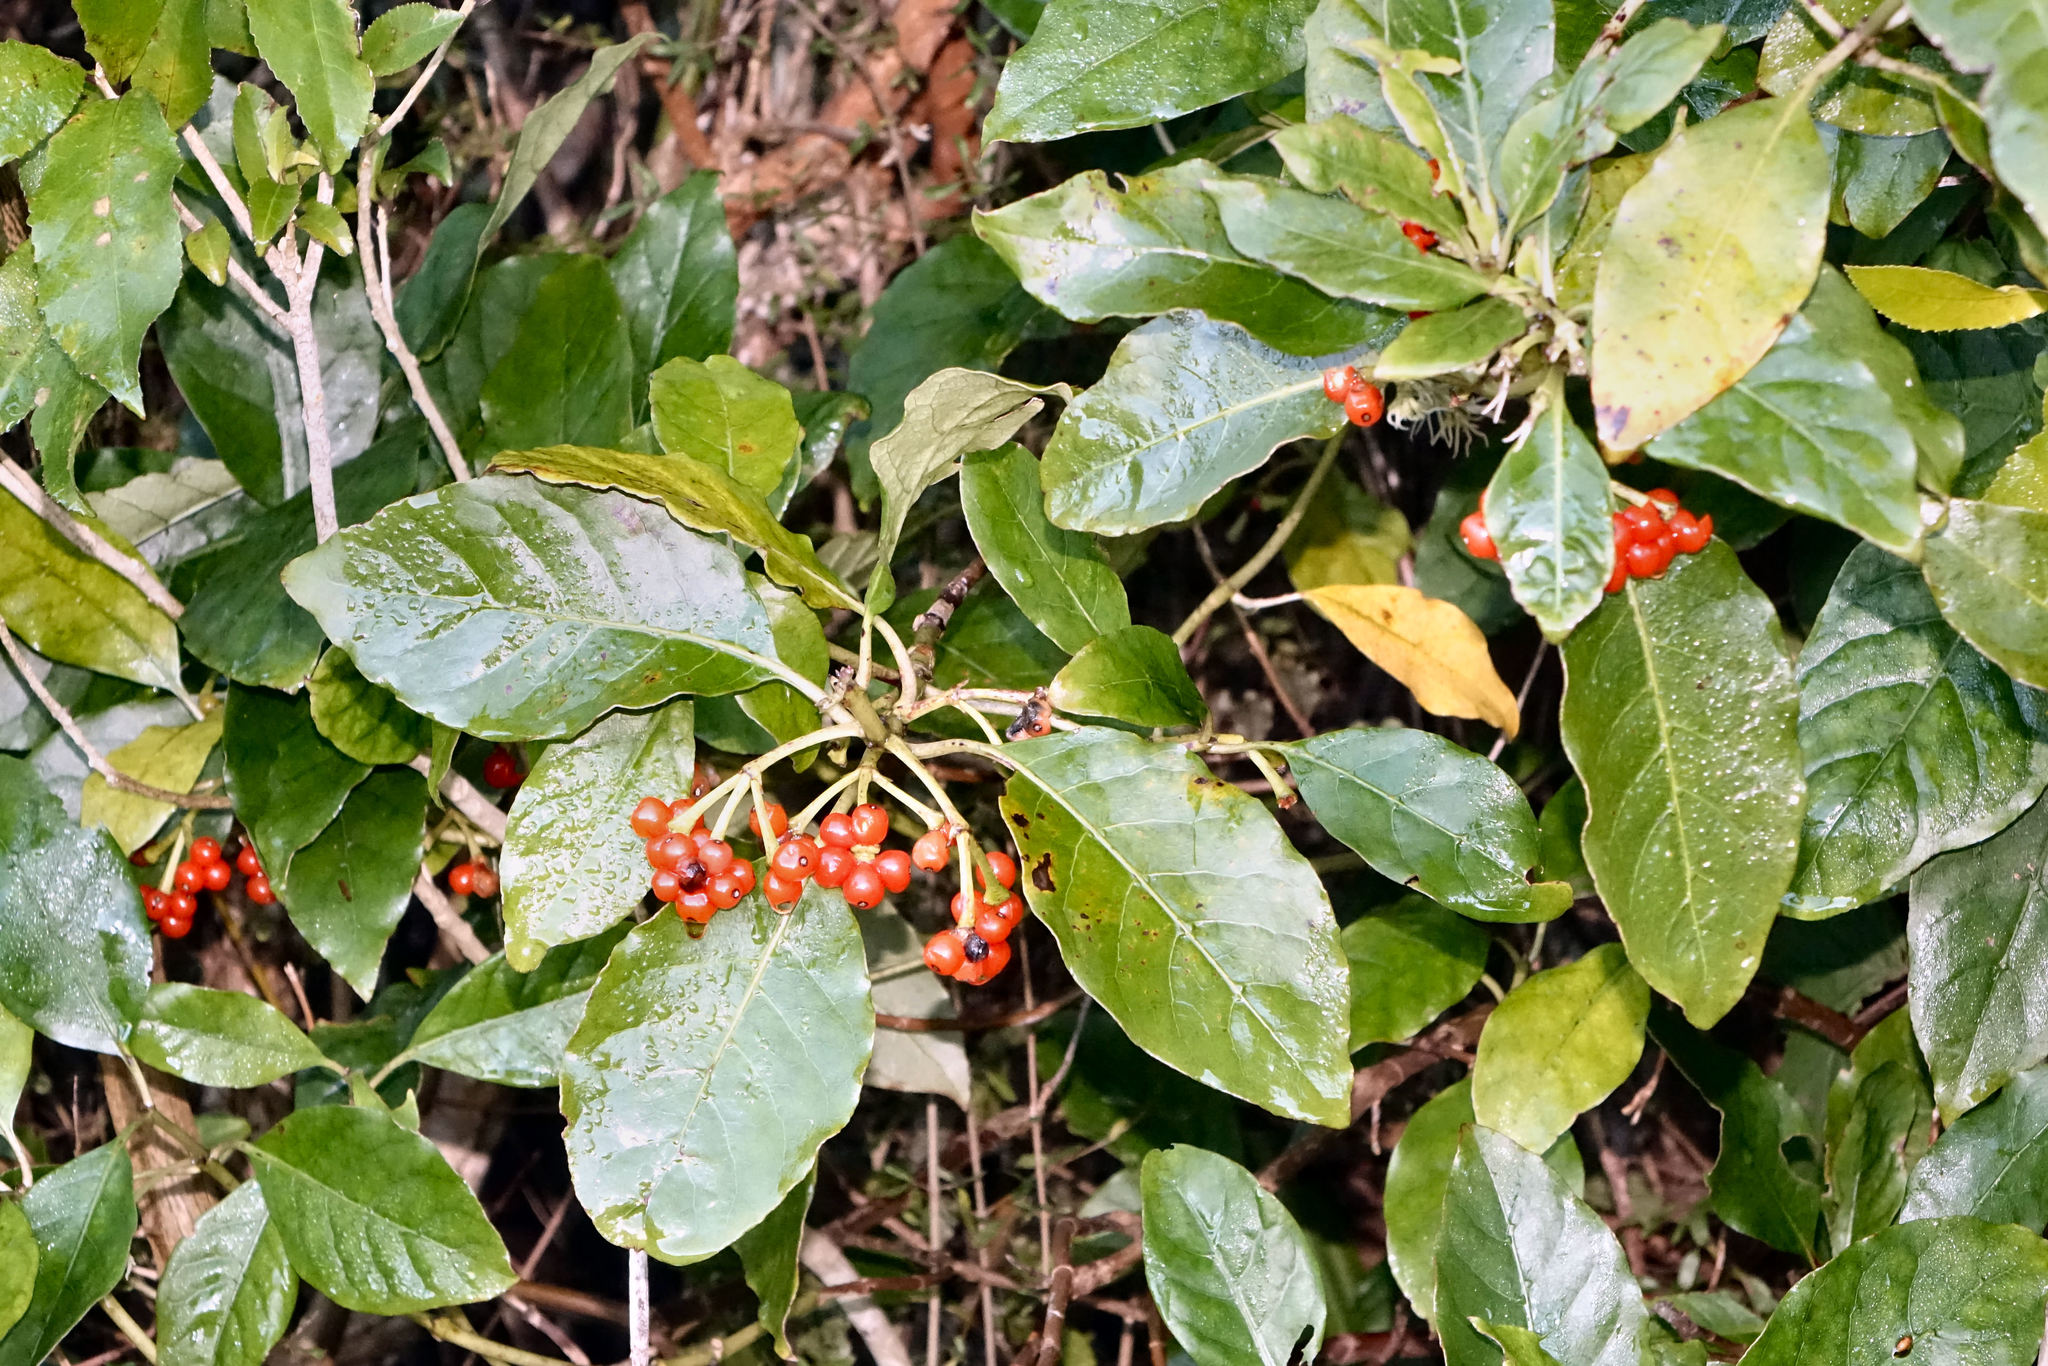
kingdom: Plantae
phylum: Tracheophyta
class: Magnoliopsida
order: Gentianales
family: Rubiaceae
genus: Coprosma
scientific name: Coprosma autumnalis
